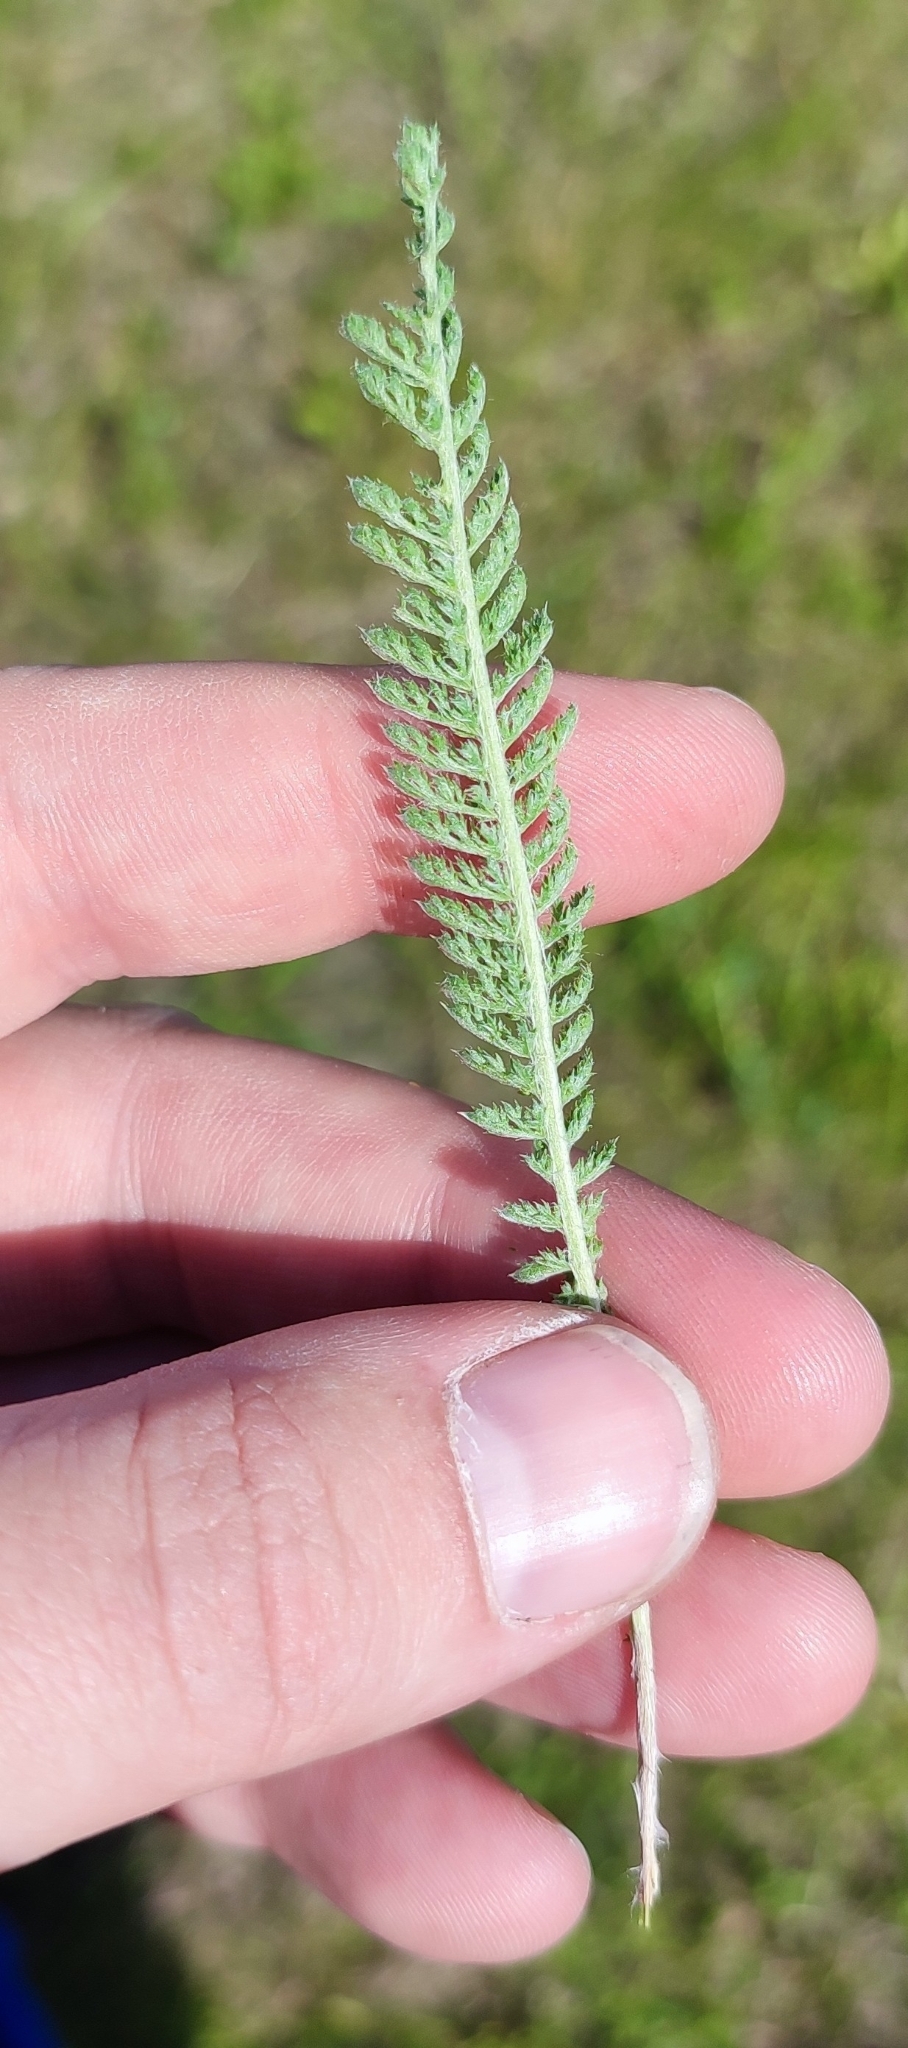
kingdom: Plantae
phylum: Tracheophyta
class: Magnoliopsida
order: Asterales
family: Asteraceae
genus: Achillea
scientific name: Achillea millefolium
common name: Yarrow
